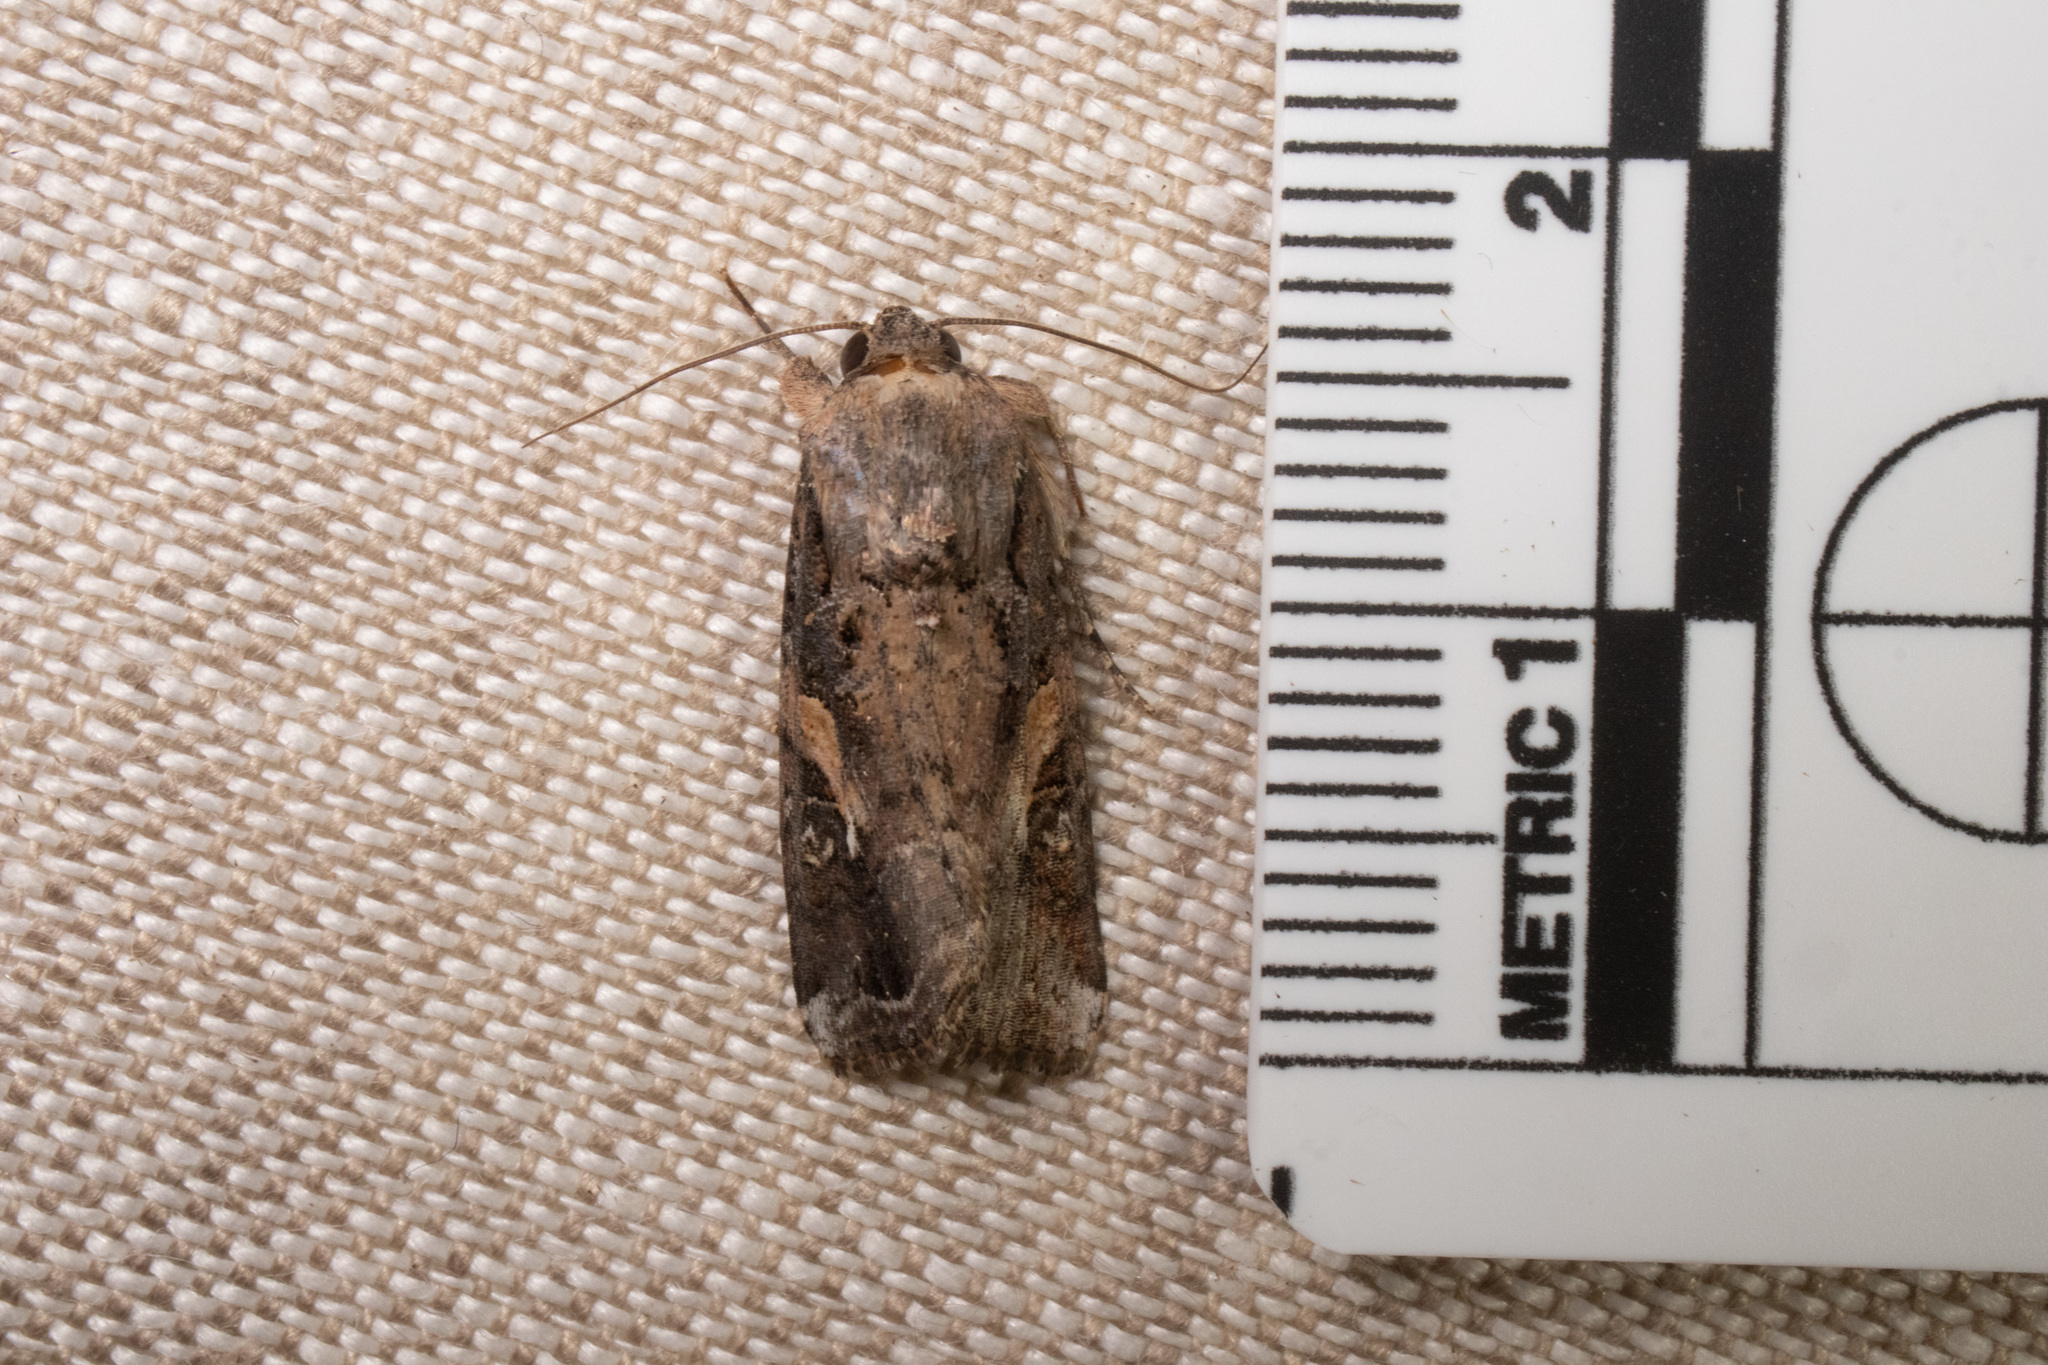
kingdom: Animalia
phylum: Arthropoda
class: Insecta
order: Lepidoptera
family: Noctuidae
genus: Spodoptera
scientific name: Spodoptera frugiperda
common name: Fall armyworm
